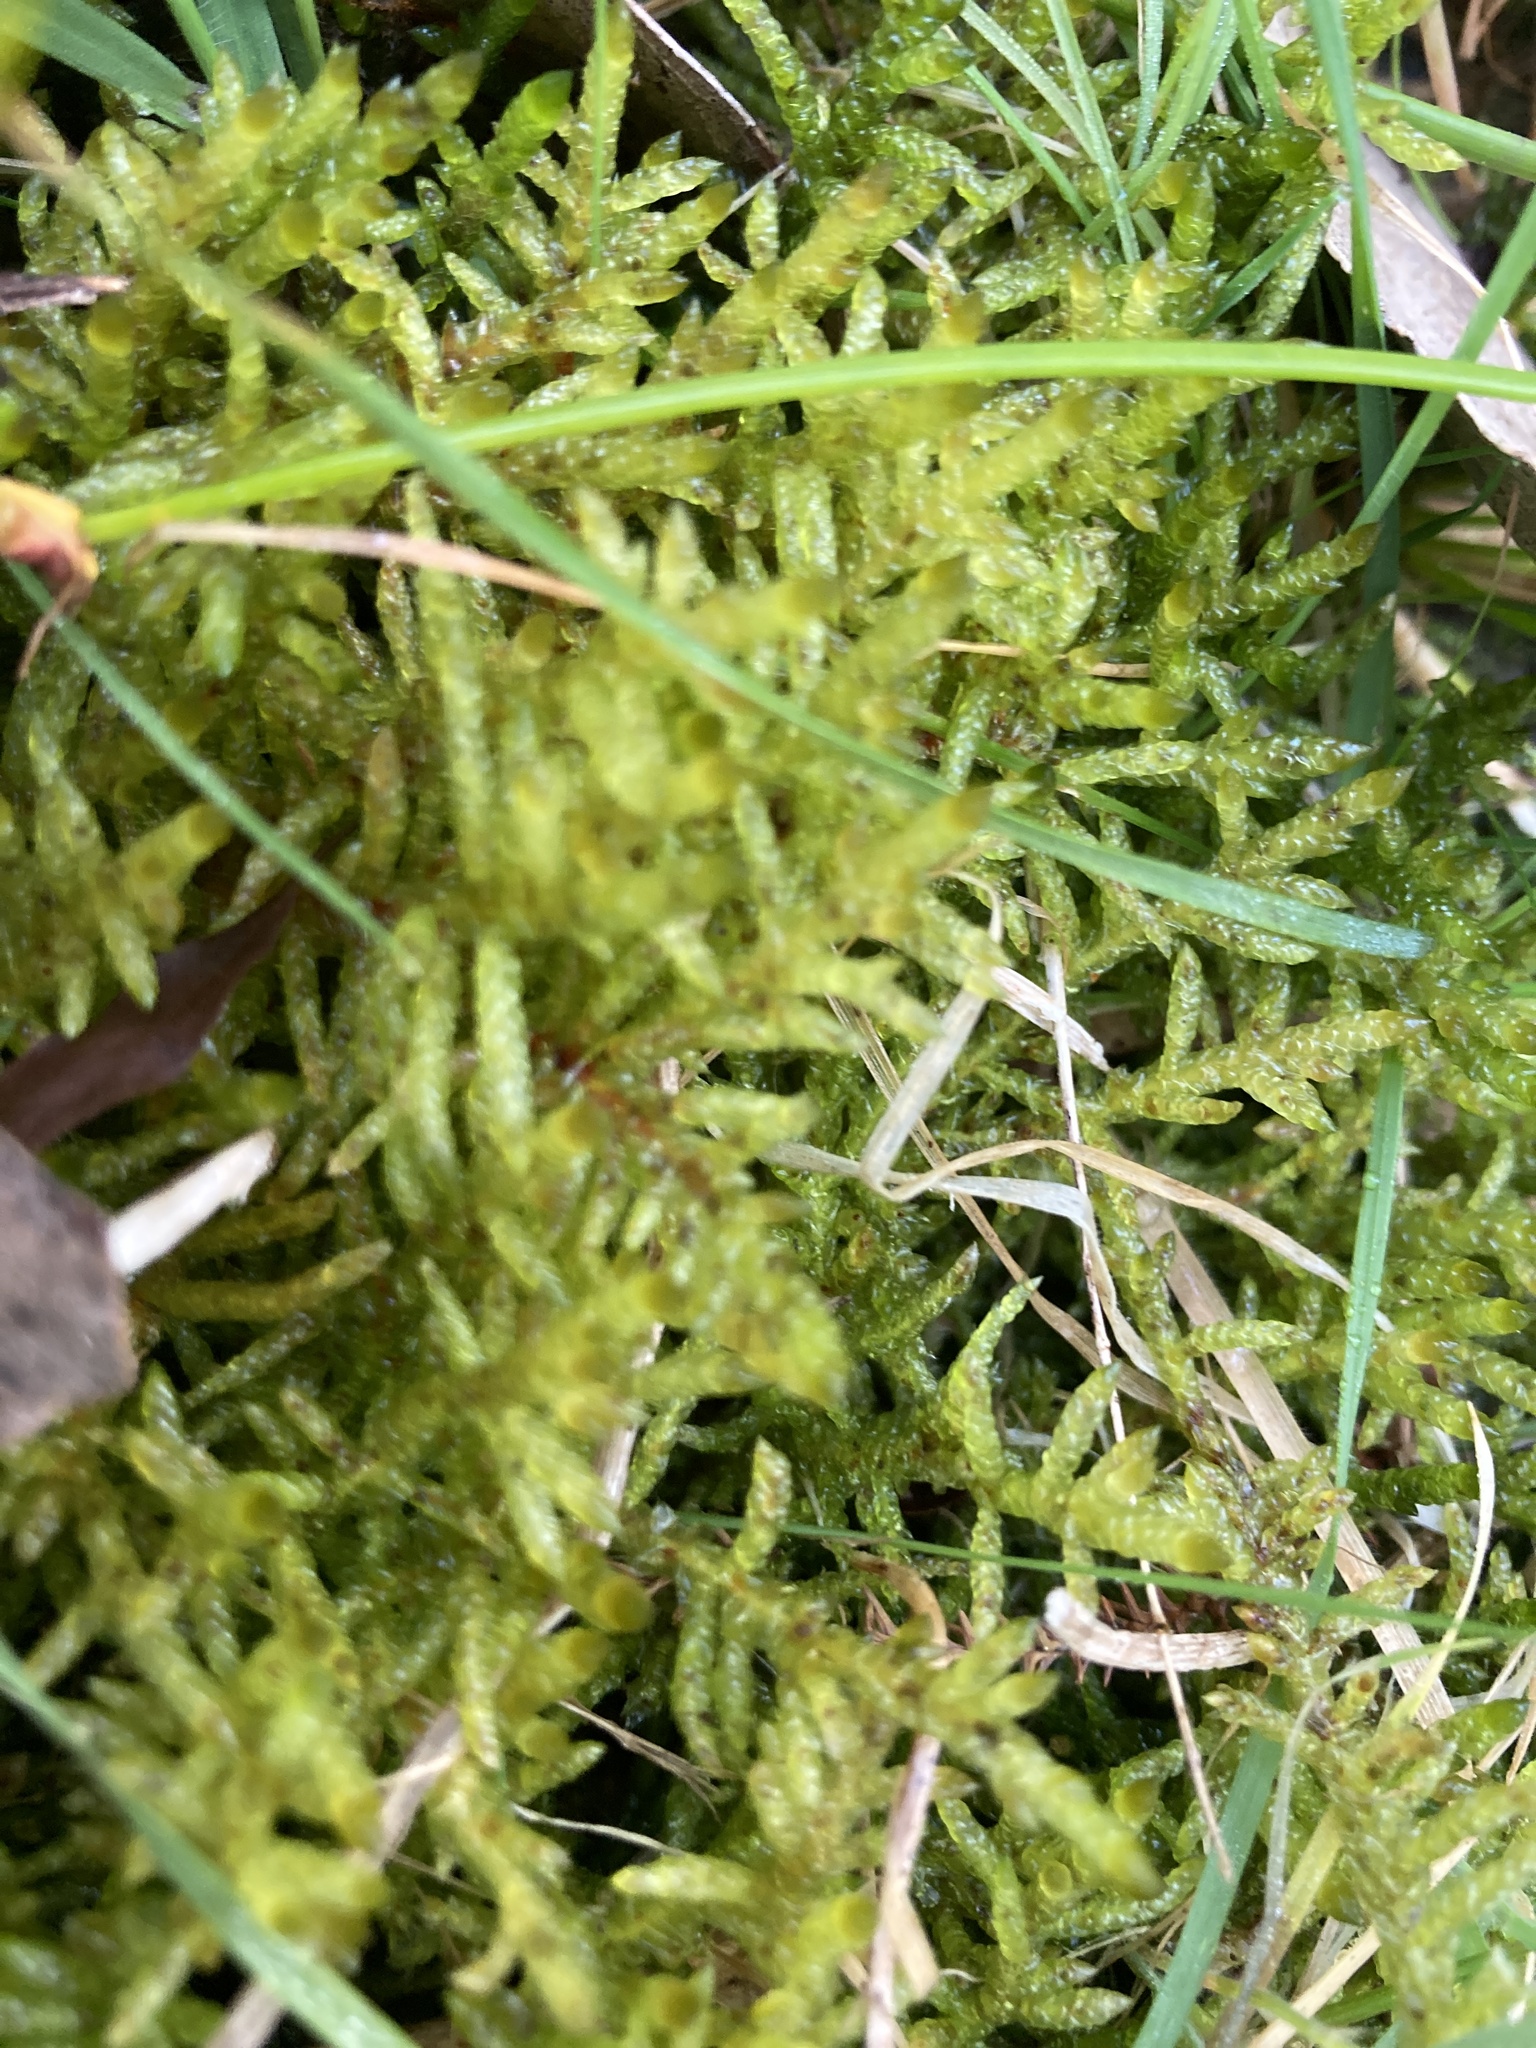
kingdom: Plantae
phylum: Bryophyta
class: Bryopsida
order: Hypnales
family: Brachytheciaceae
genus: Pseudoscleropodium
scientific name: Pseudoscleropodium purum
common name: Neat feather-moss
